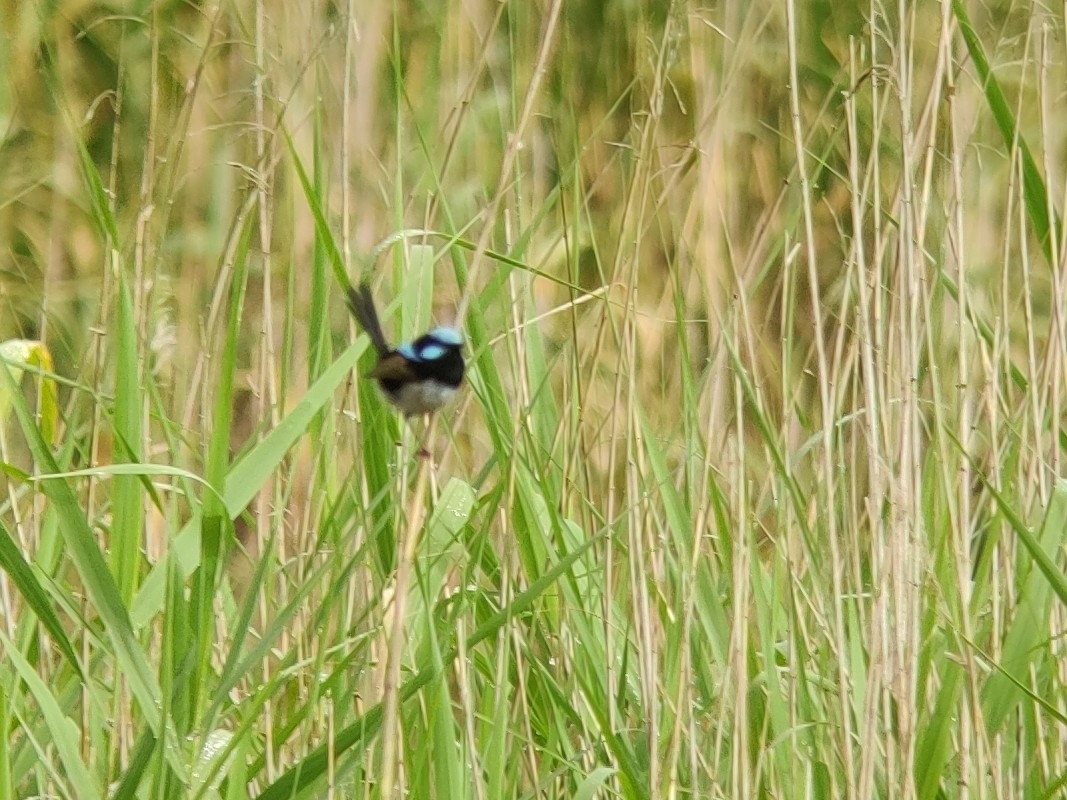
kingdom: Animalia
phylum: Chordata
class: Aves
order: Passeriformes
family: Maluridae
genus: Malurus
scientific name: Malurus cyaneus
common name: Superb fairywren
